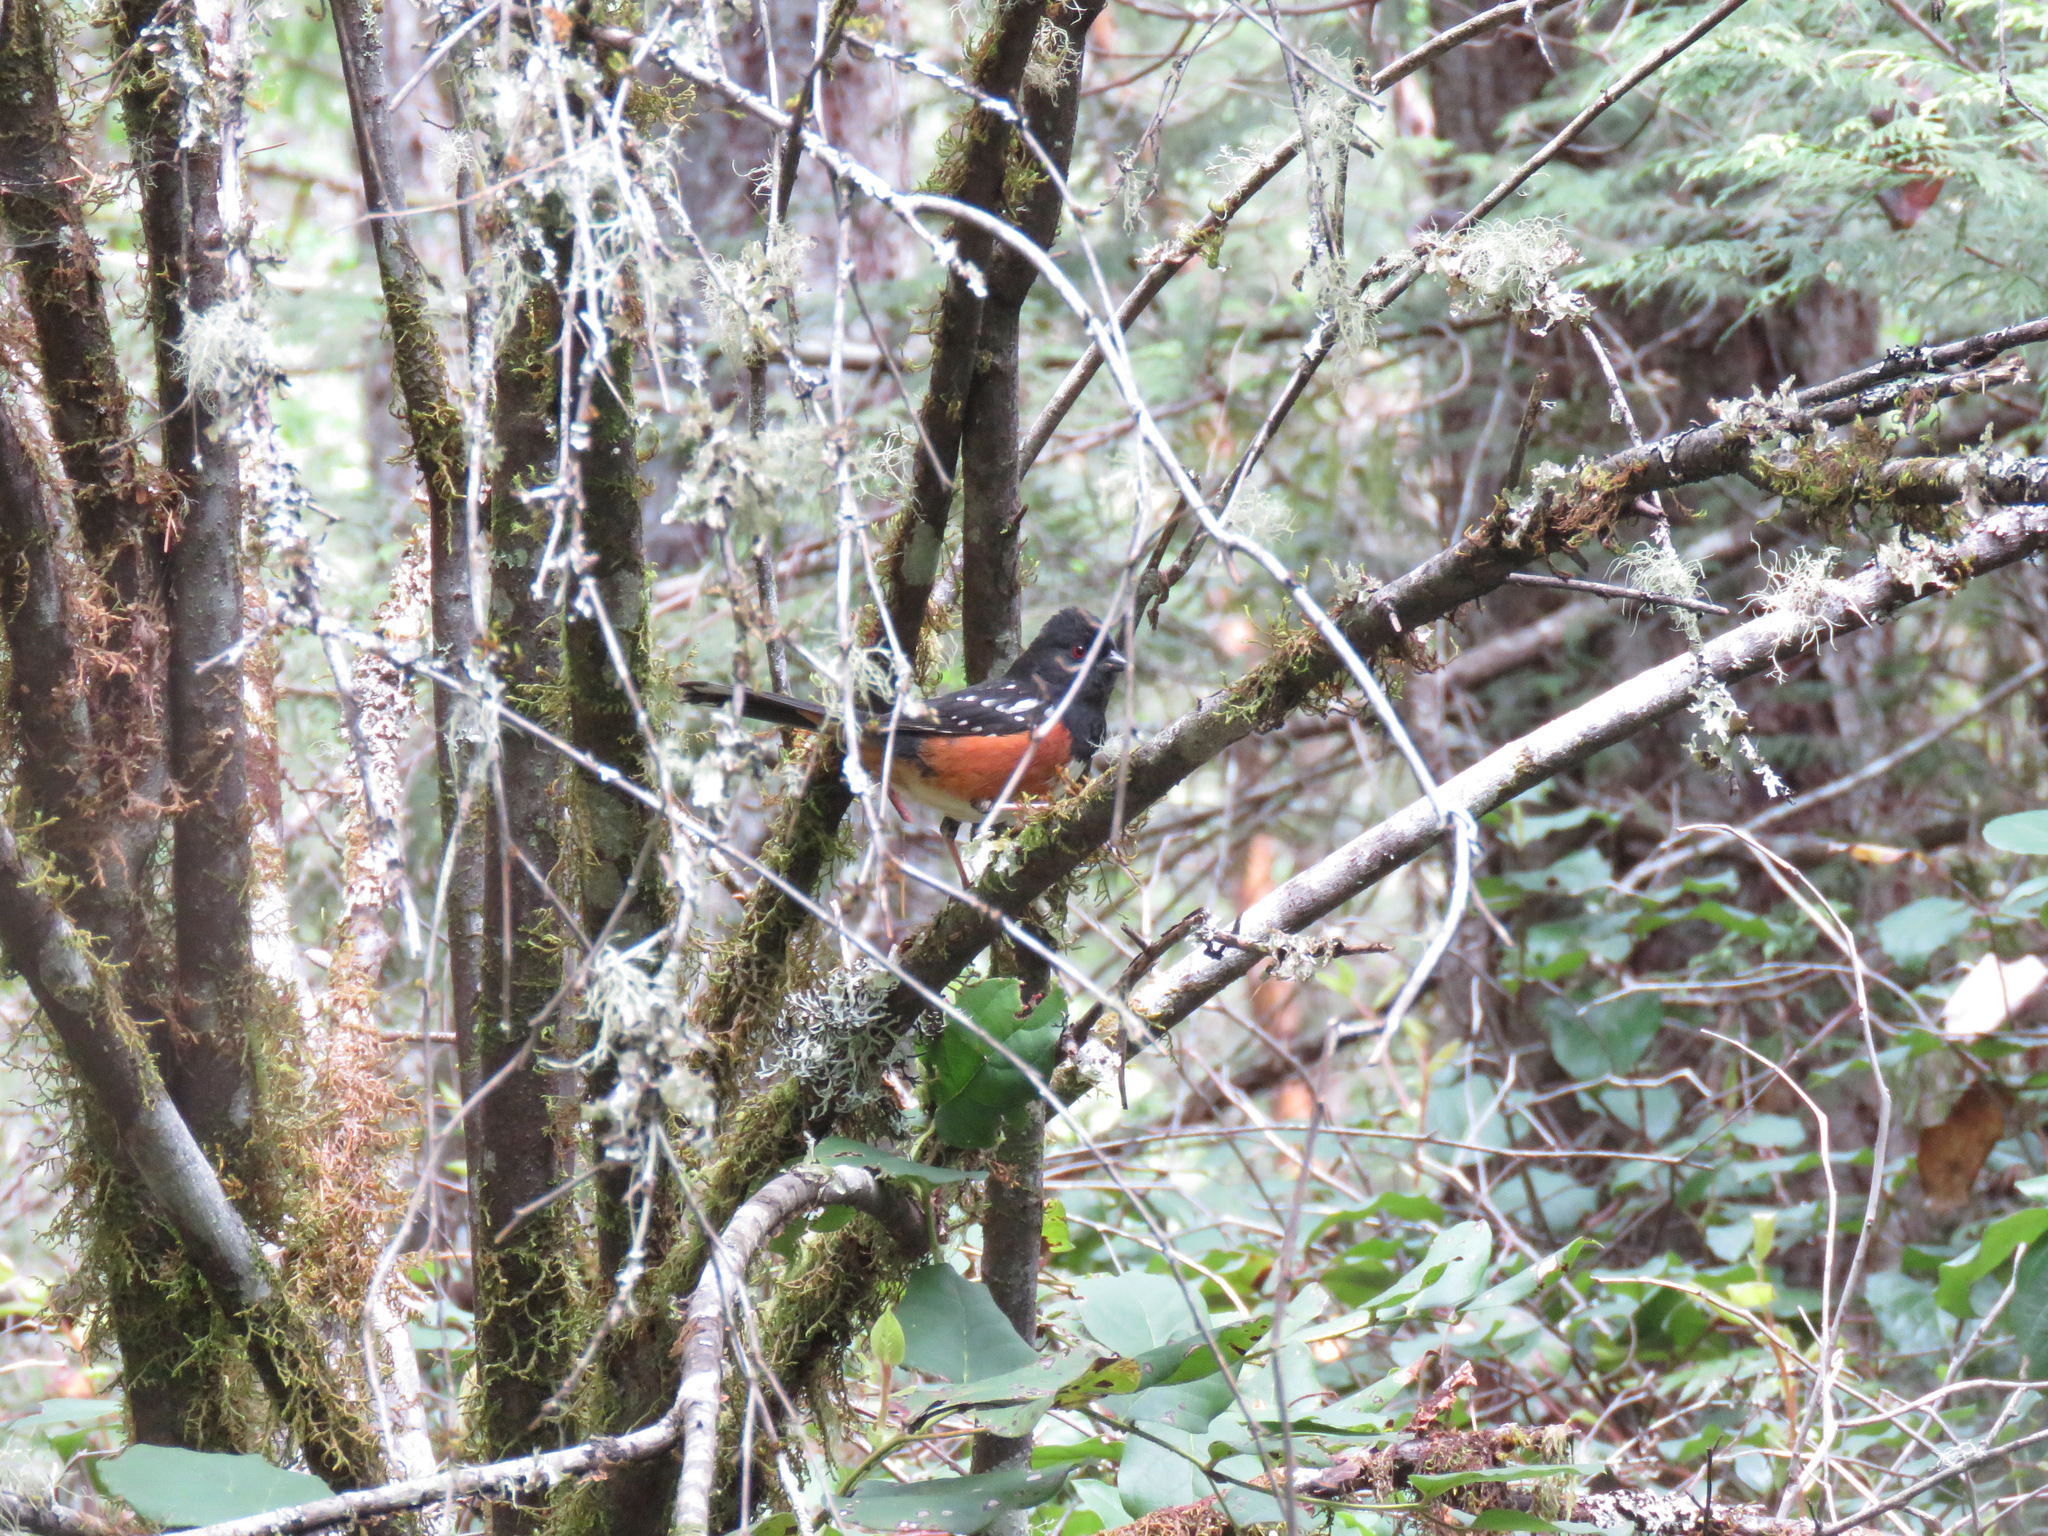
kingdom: Animalia
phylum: Chordata
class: Aves
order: Passeriformes
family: Passerellidae
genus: Pipilo
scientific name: Pipilo maculatus
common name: Spotted towhee
